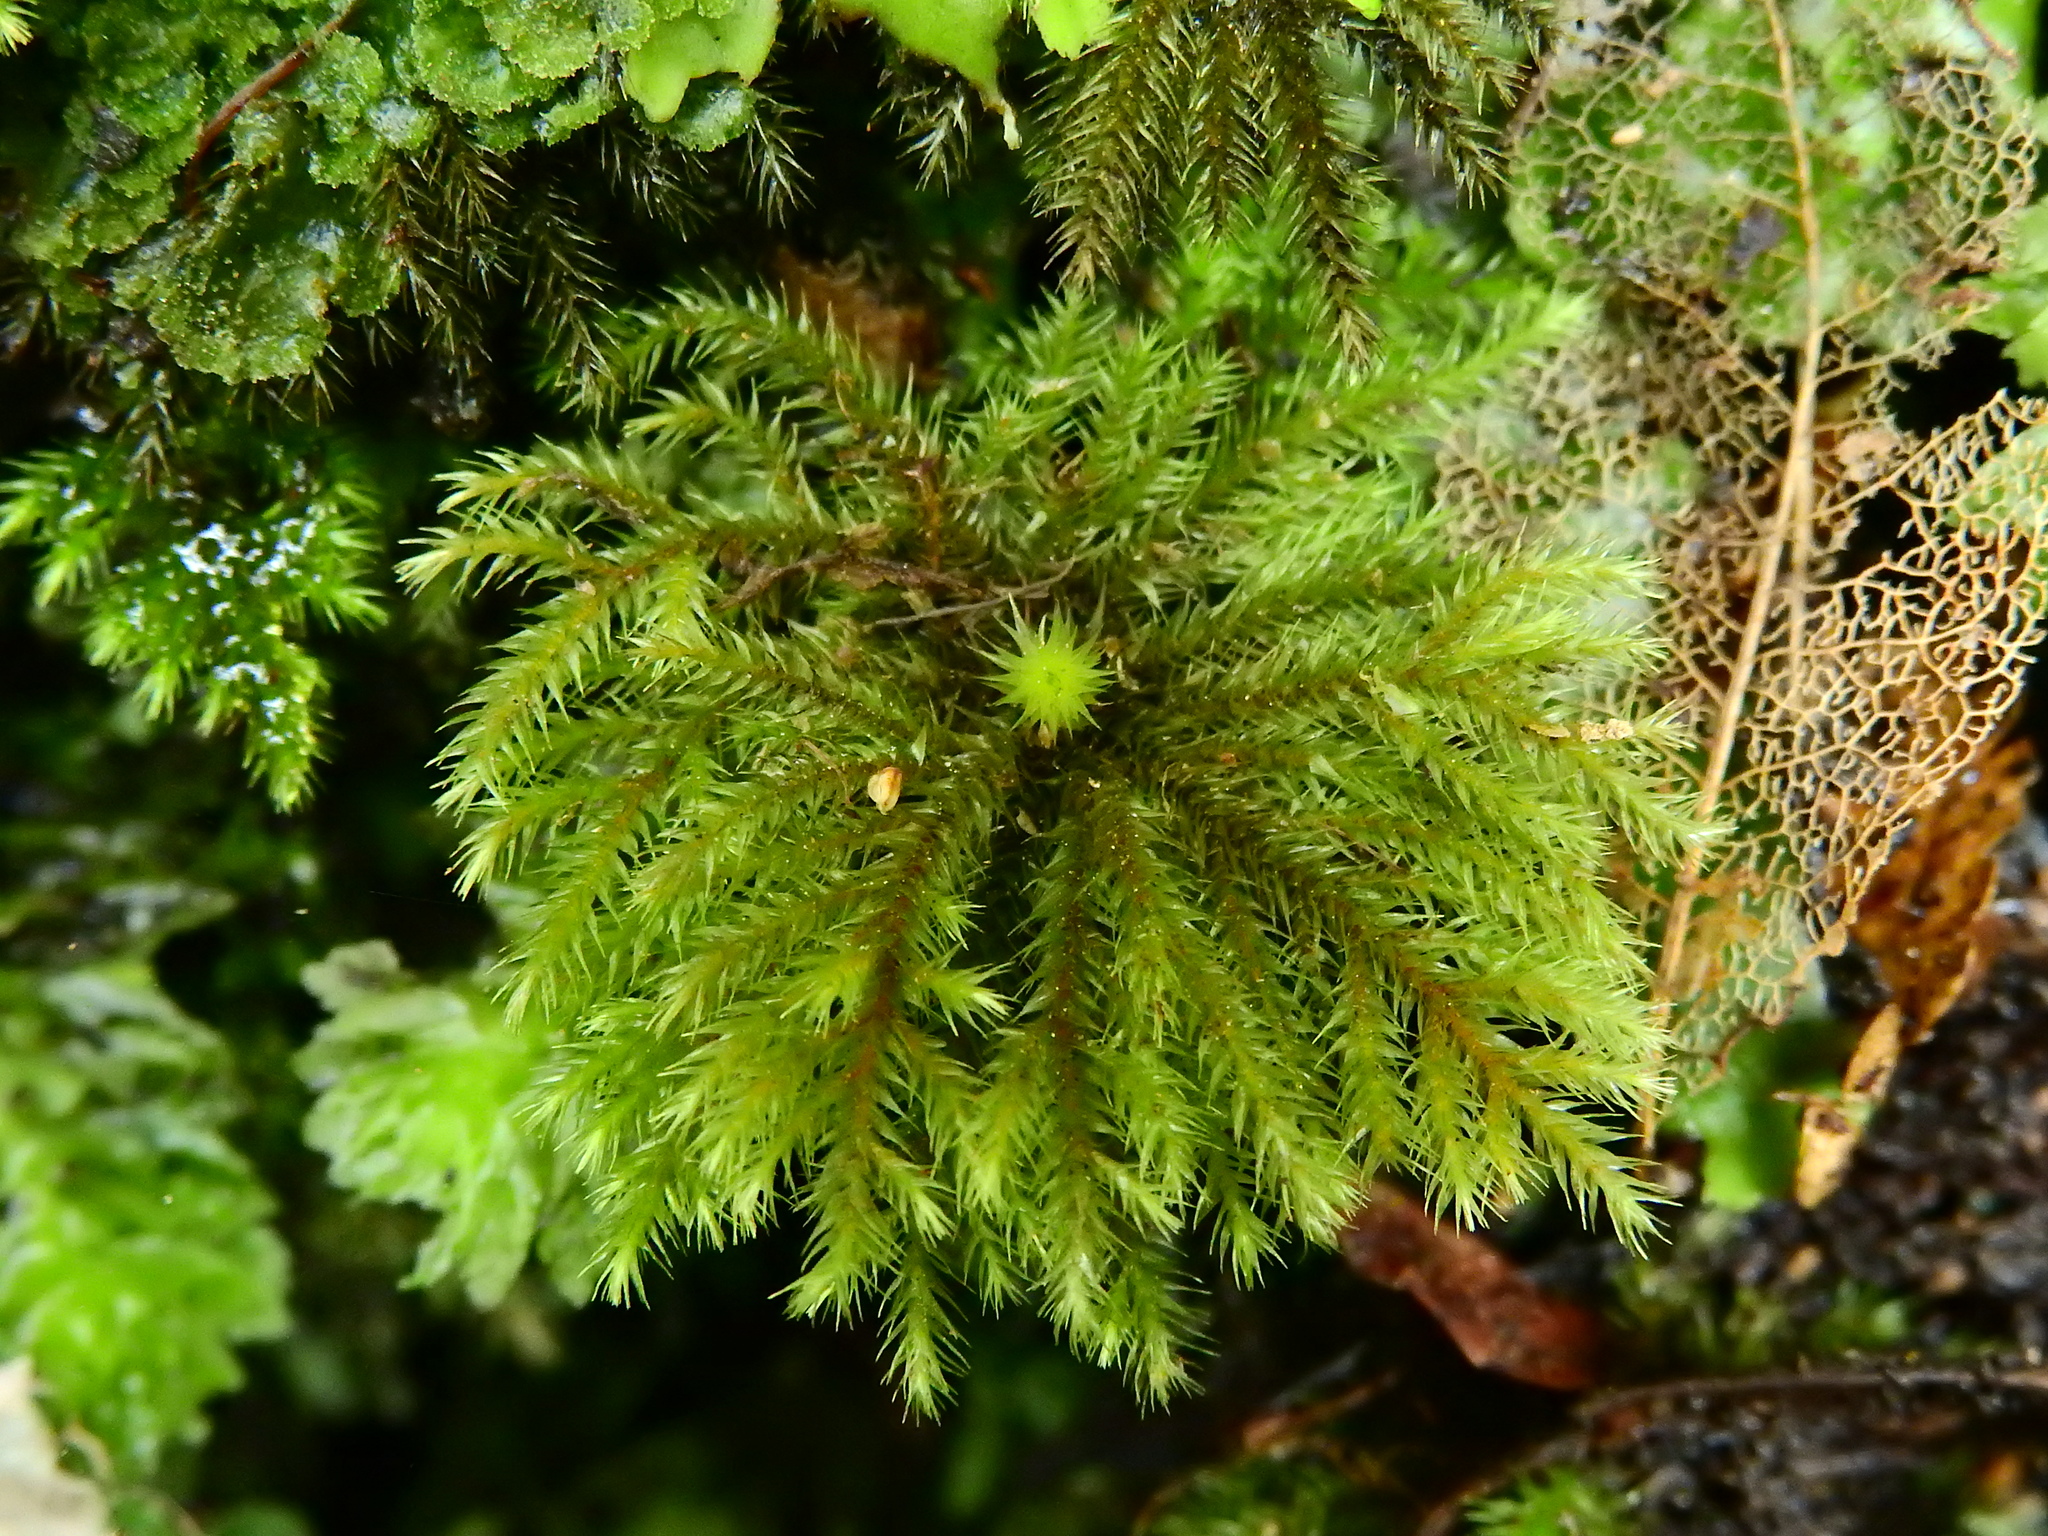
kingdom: Plantae
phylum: Bryophyta
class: Bryopsida
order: Hypopterygiales
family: Hypopterygiaceae
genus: Dendrohypopterygium
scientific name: Dendrohypopterygium filiculiforme
